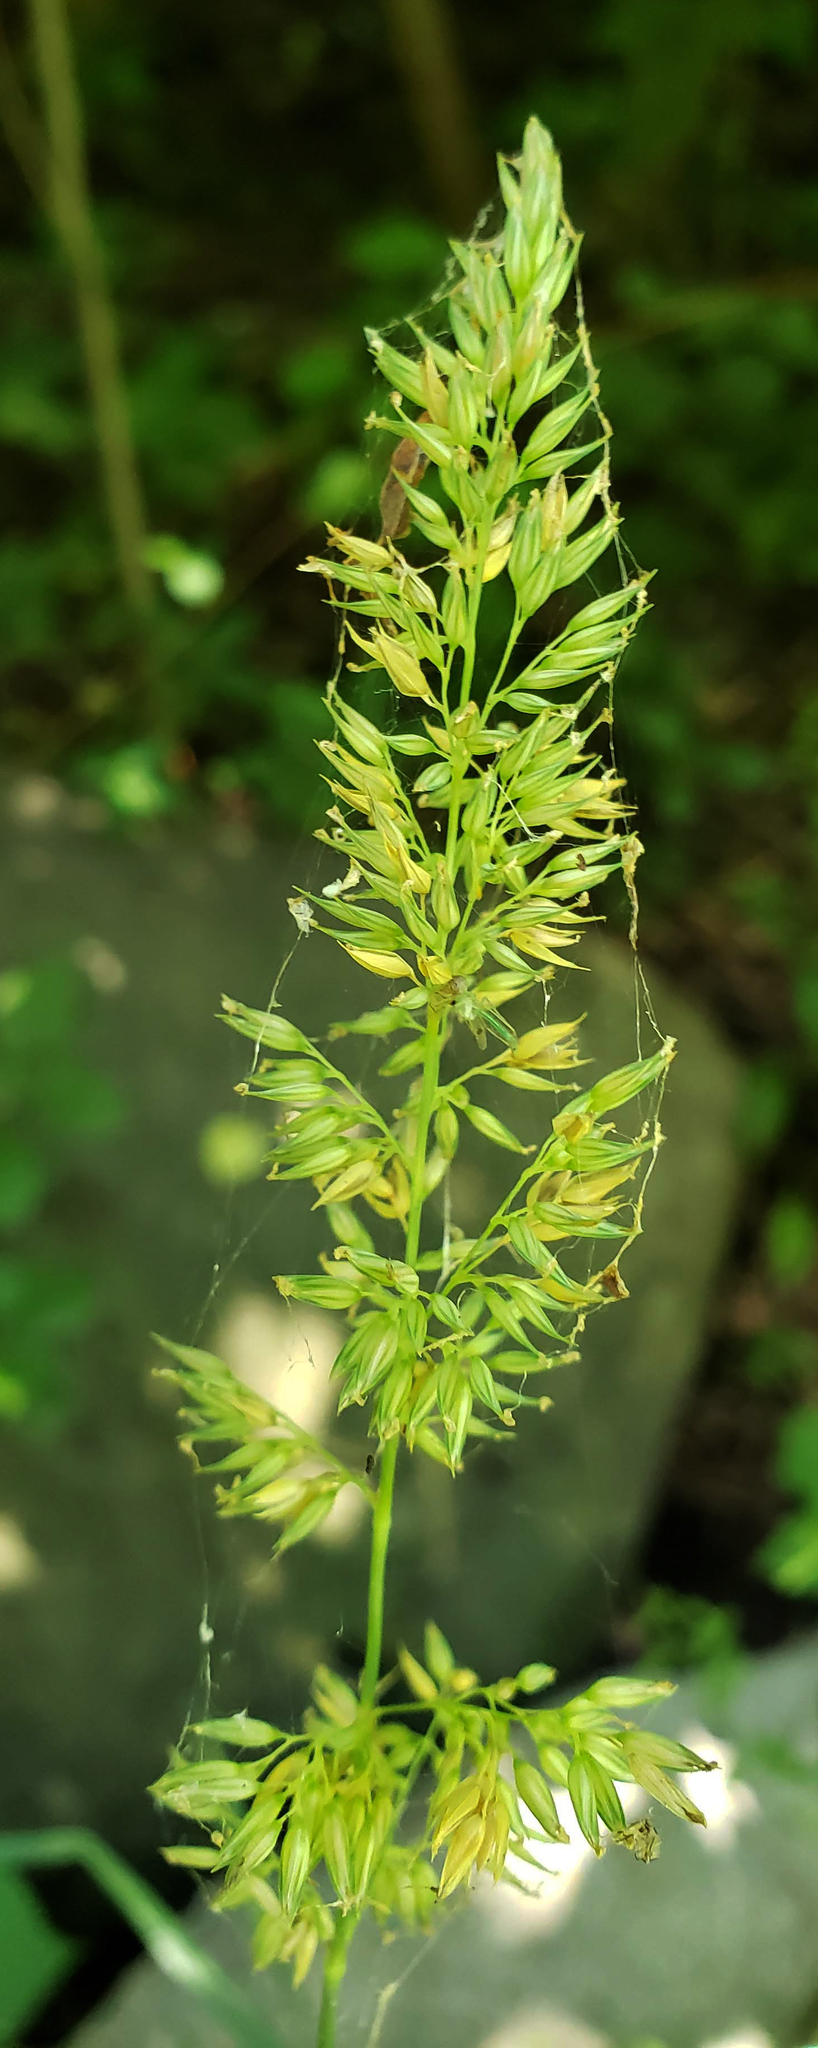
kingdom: Plantae
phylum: Tracheophyta
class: Liliopsida
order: Poales
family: Poaceae
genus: Phalaris
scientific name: Phalaris arundinacea
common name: Reed canary-grass
